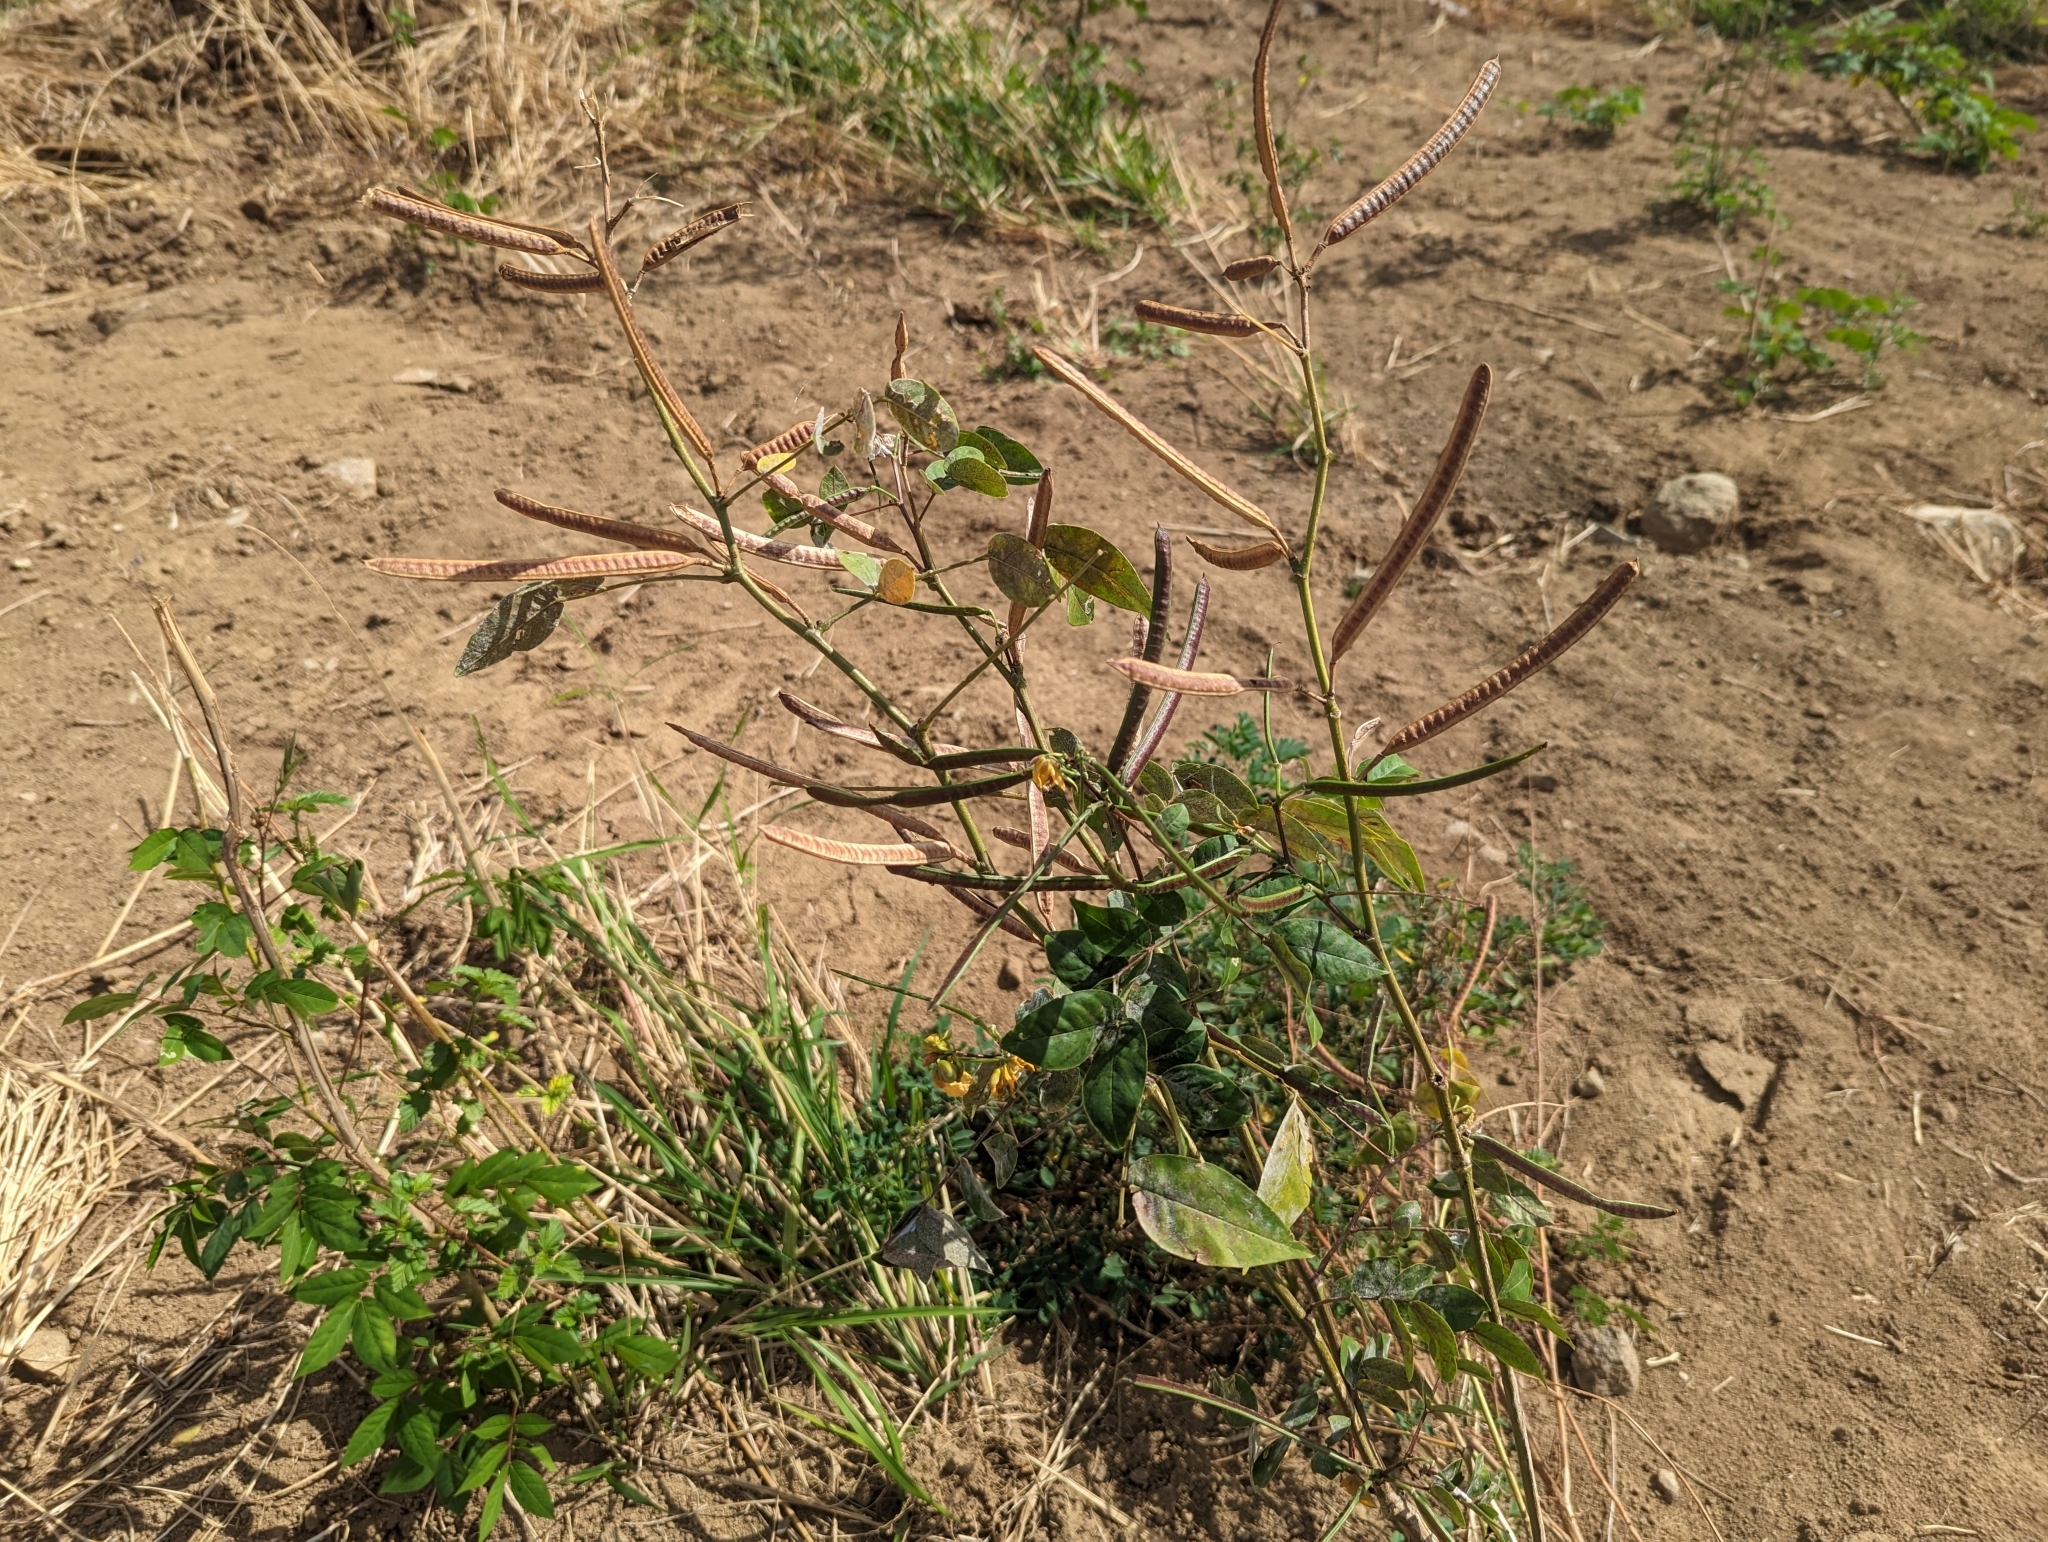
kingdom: Plantae
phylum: Tracheophyta
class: Magnoliopsida
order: Fabales
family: Fabaceae
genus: Senna
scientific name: Senna occidentalis
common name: Septicweed
